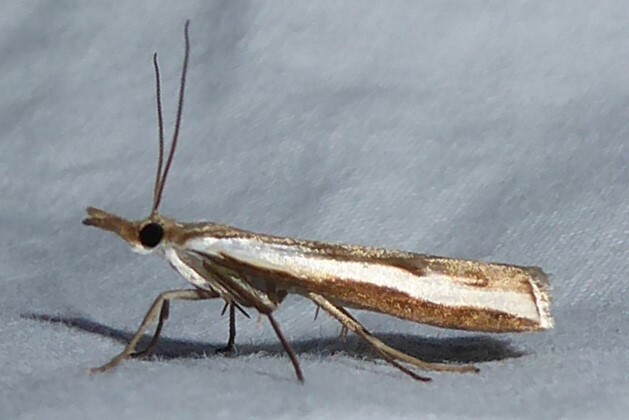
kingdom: Animalia
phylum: Arthropoda
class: Insecta
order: Lepidoptera
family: Crambidae
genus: Orocrambus
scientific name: Orocrambus flexuosellus
